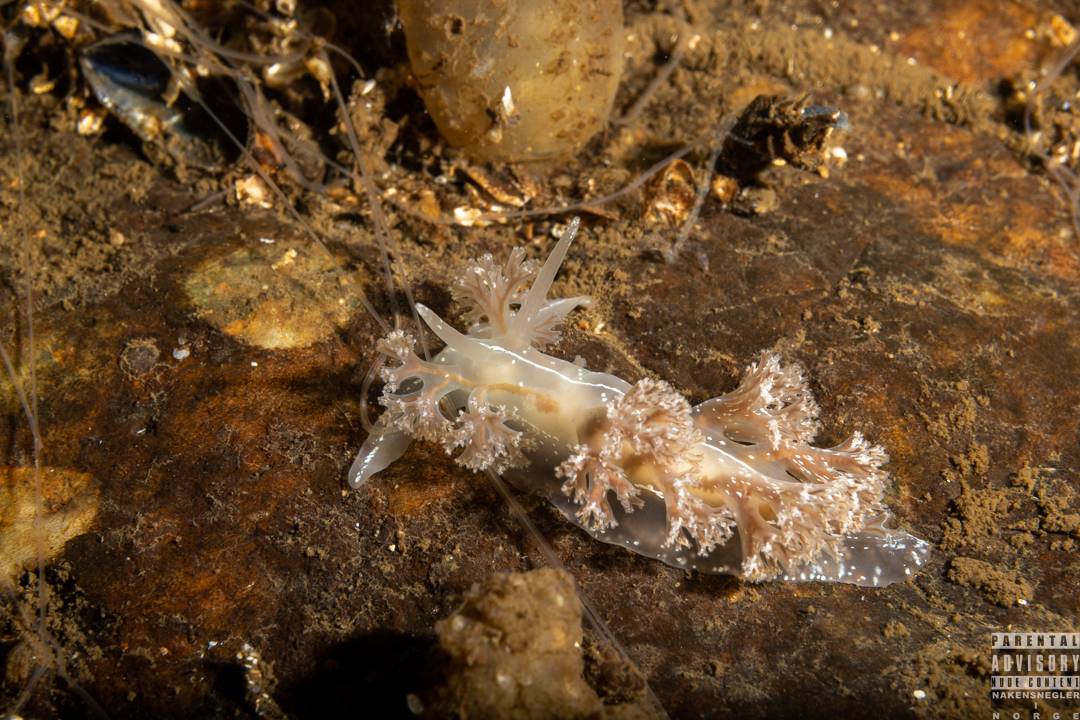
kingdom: Animalia
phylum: Mollusca
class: Gastropoda
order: Nudibranchia
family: Heroidae
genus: Hero
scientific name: Hero formosa
